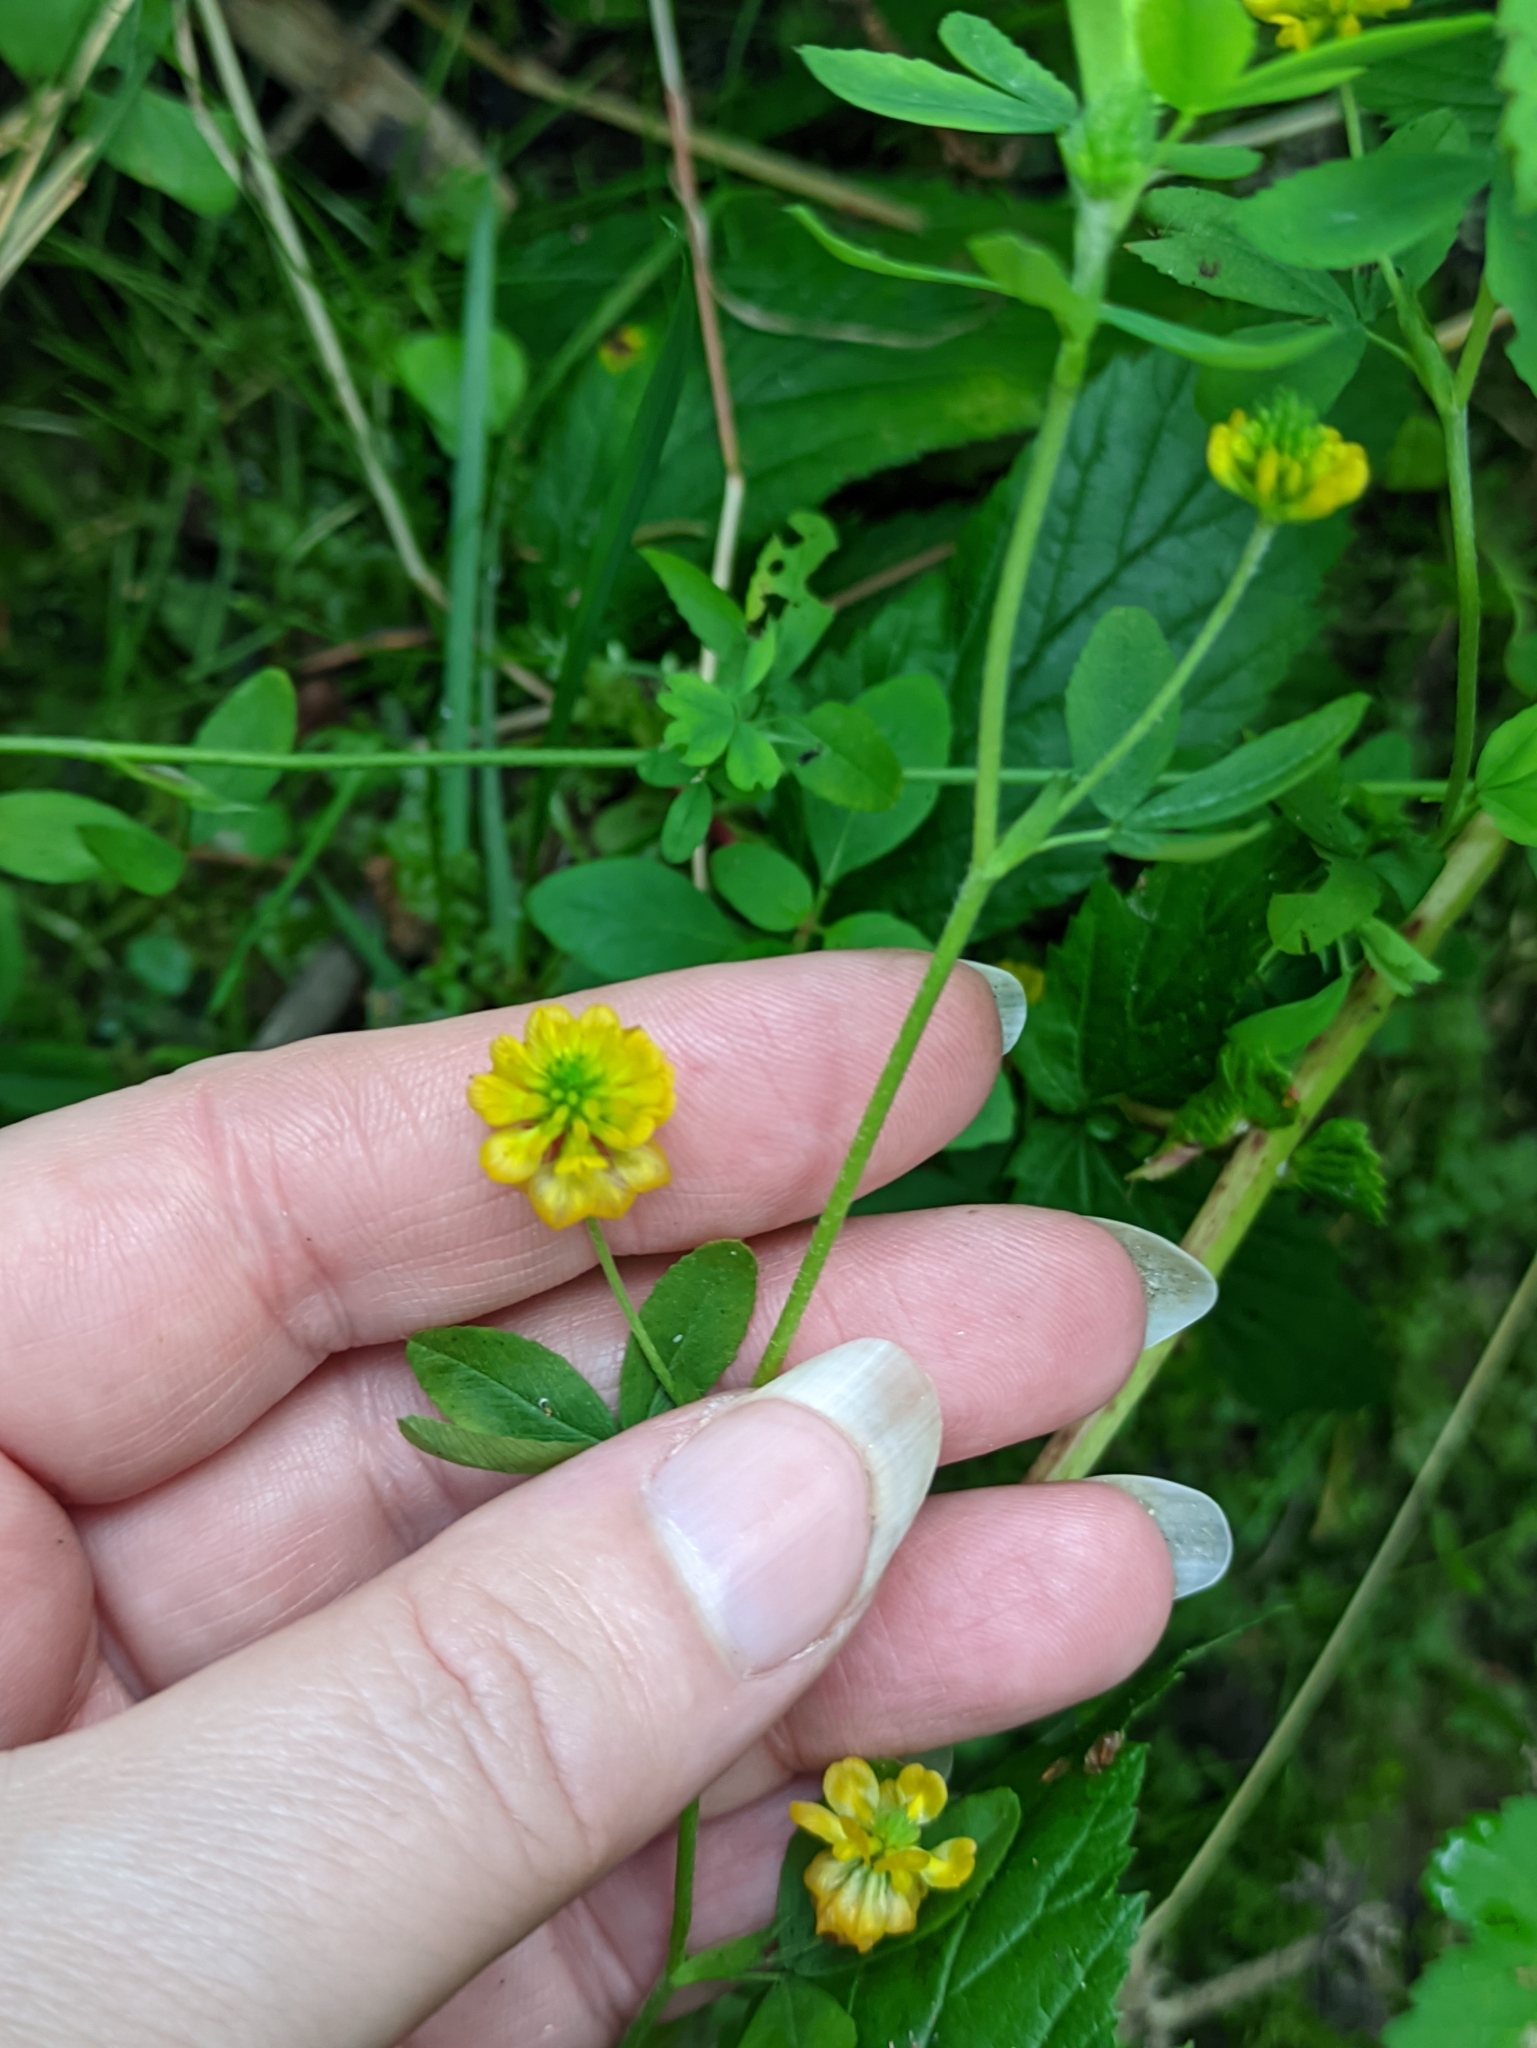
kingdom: Plantae
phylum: Tracheophyta
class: Magnoliopsida
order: Fabales
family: Fabaceae
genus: Trifolium
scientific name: Trifolium aureum
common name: Golden clover
